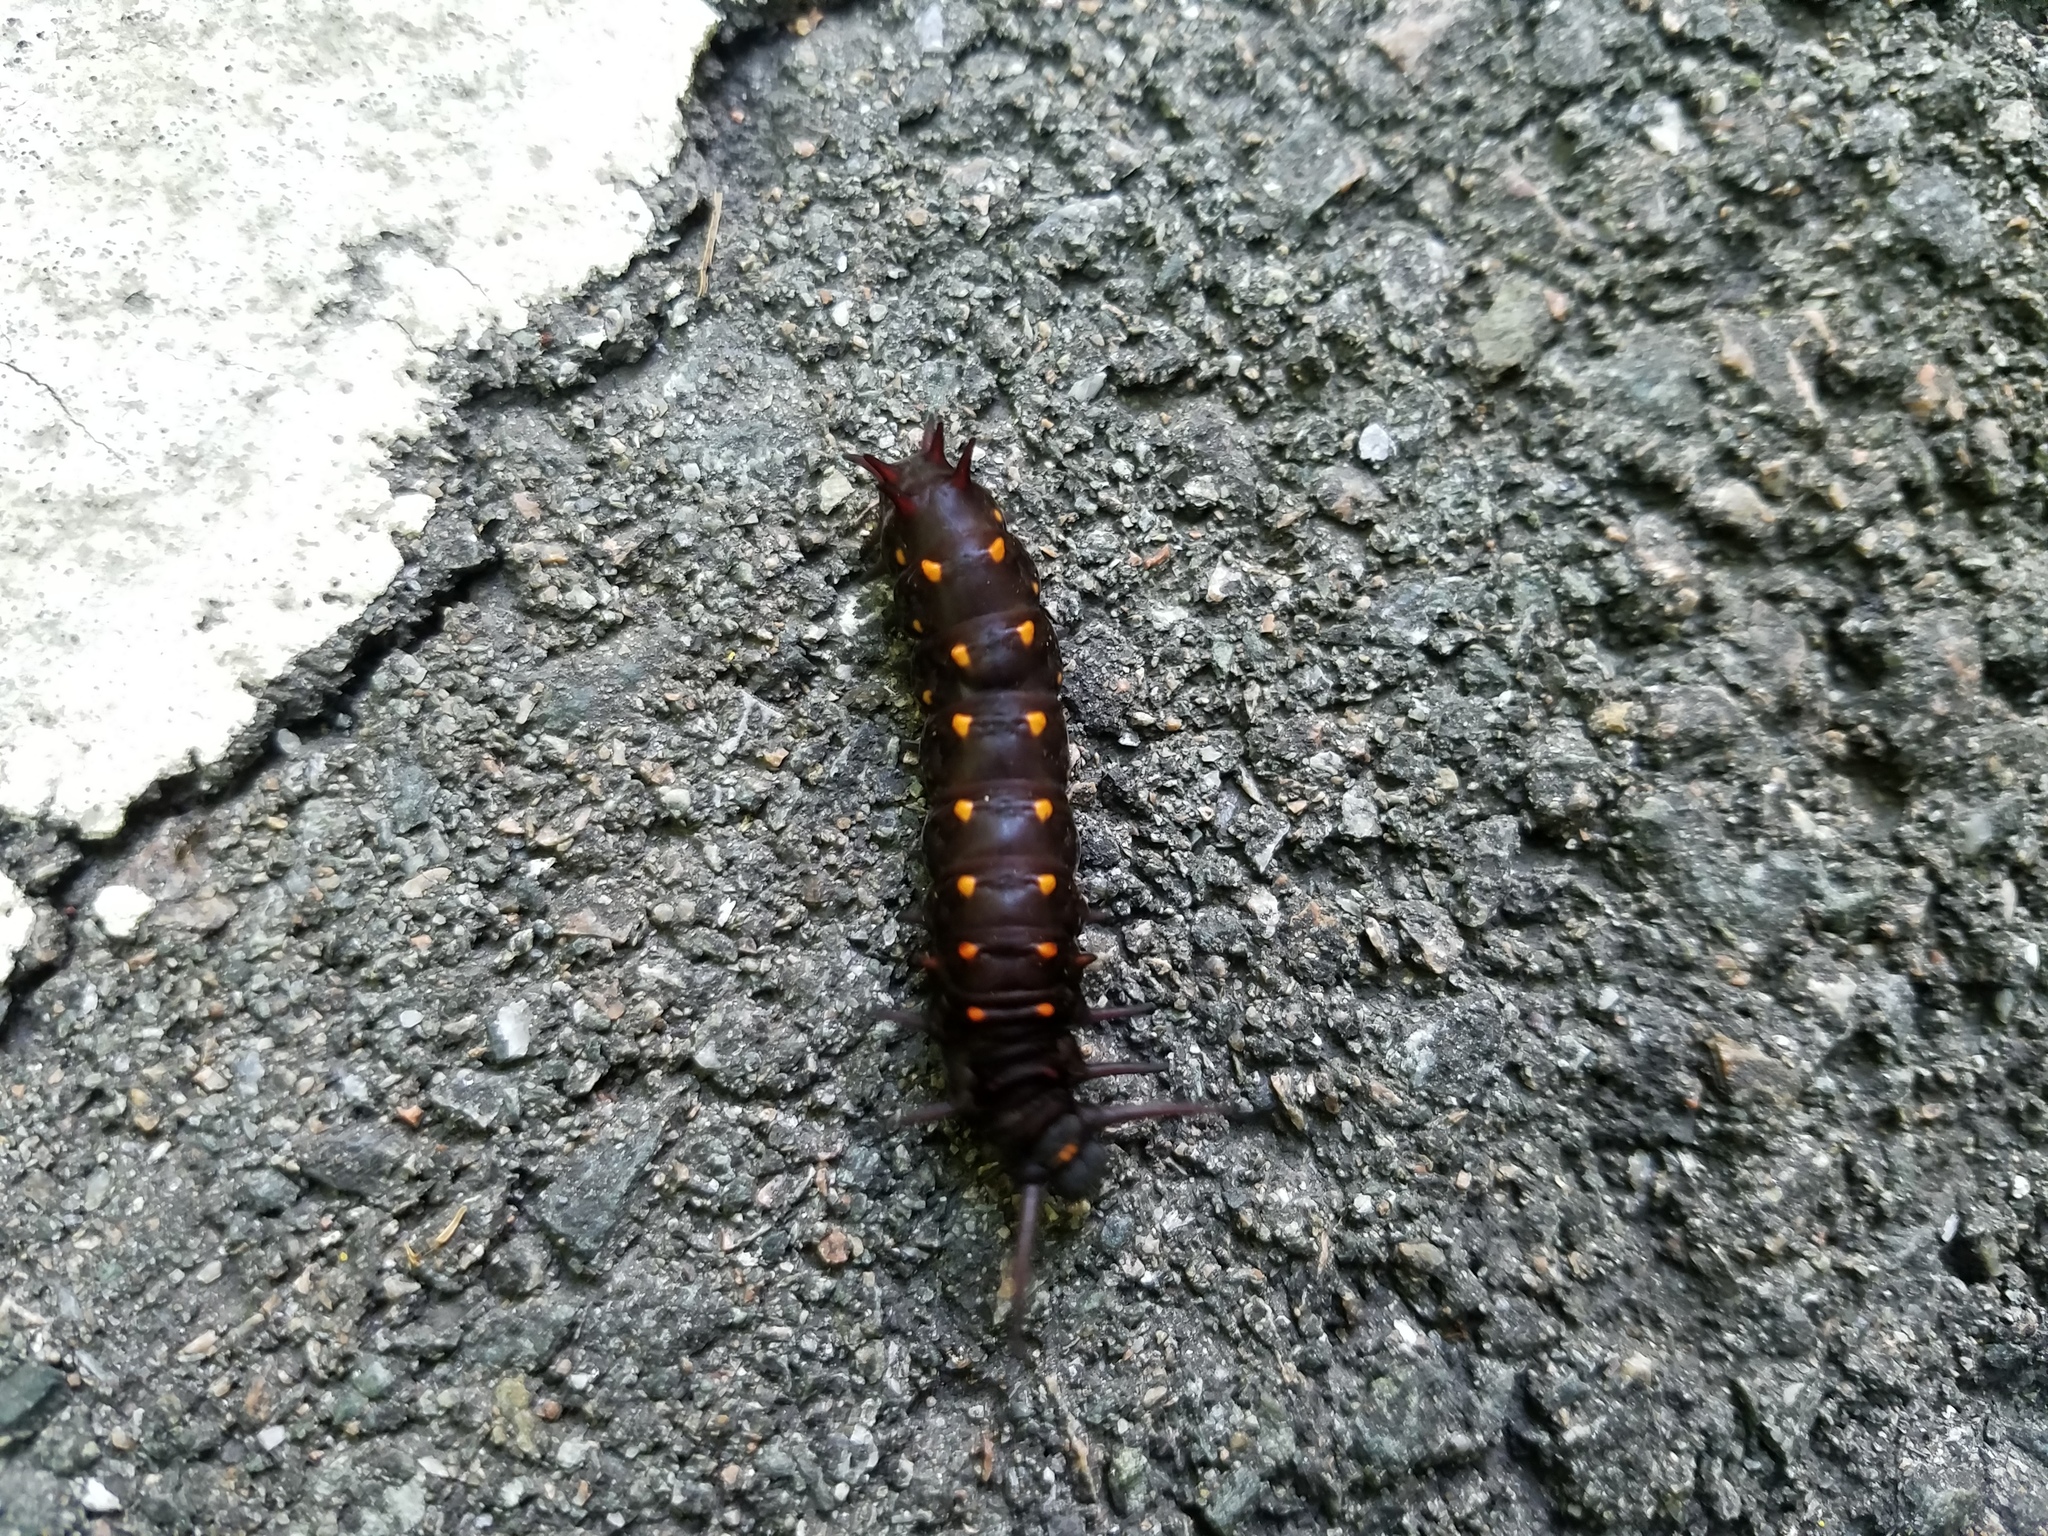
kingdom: Animalia
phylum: Arthropoda
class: Insecta
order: Lepidoptera
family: Papilionidae
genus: Battus
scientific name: Battus philenor
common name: Pipevine swallowtail
